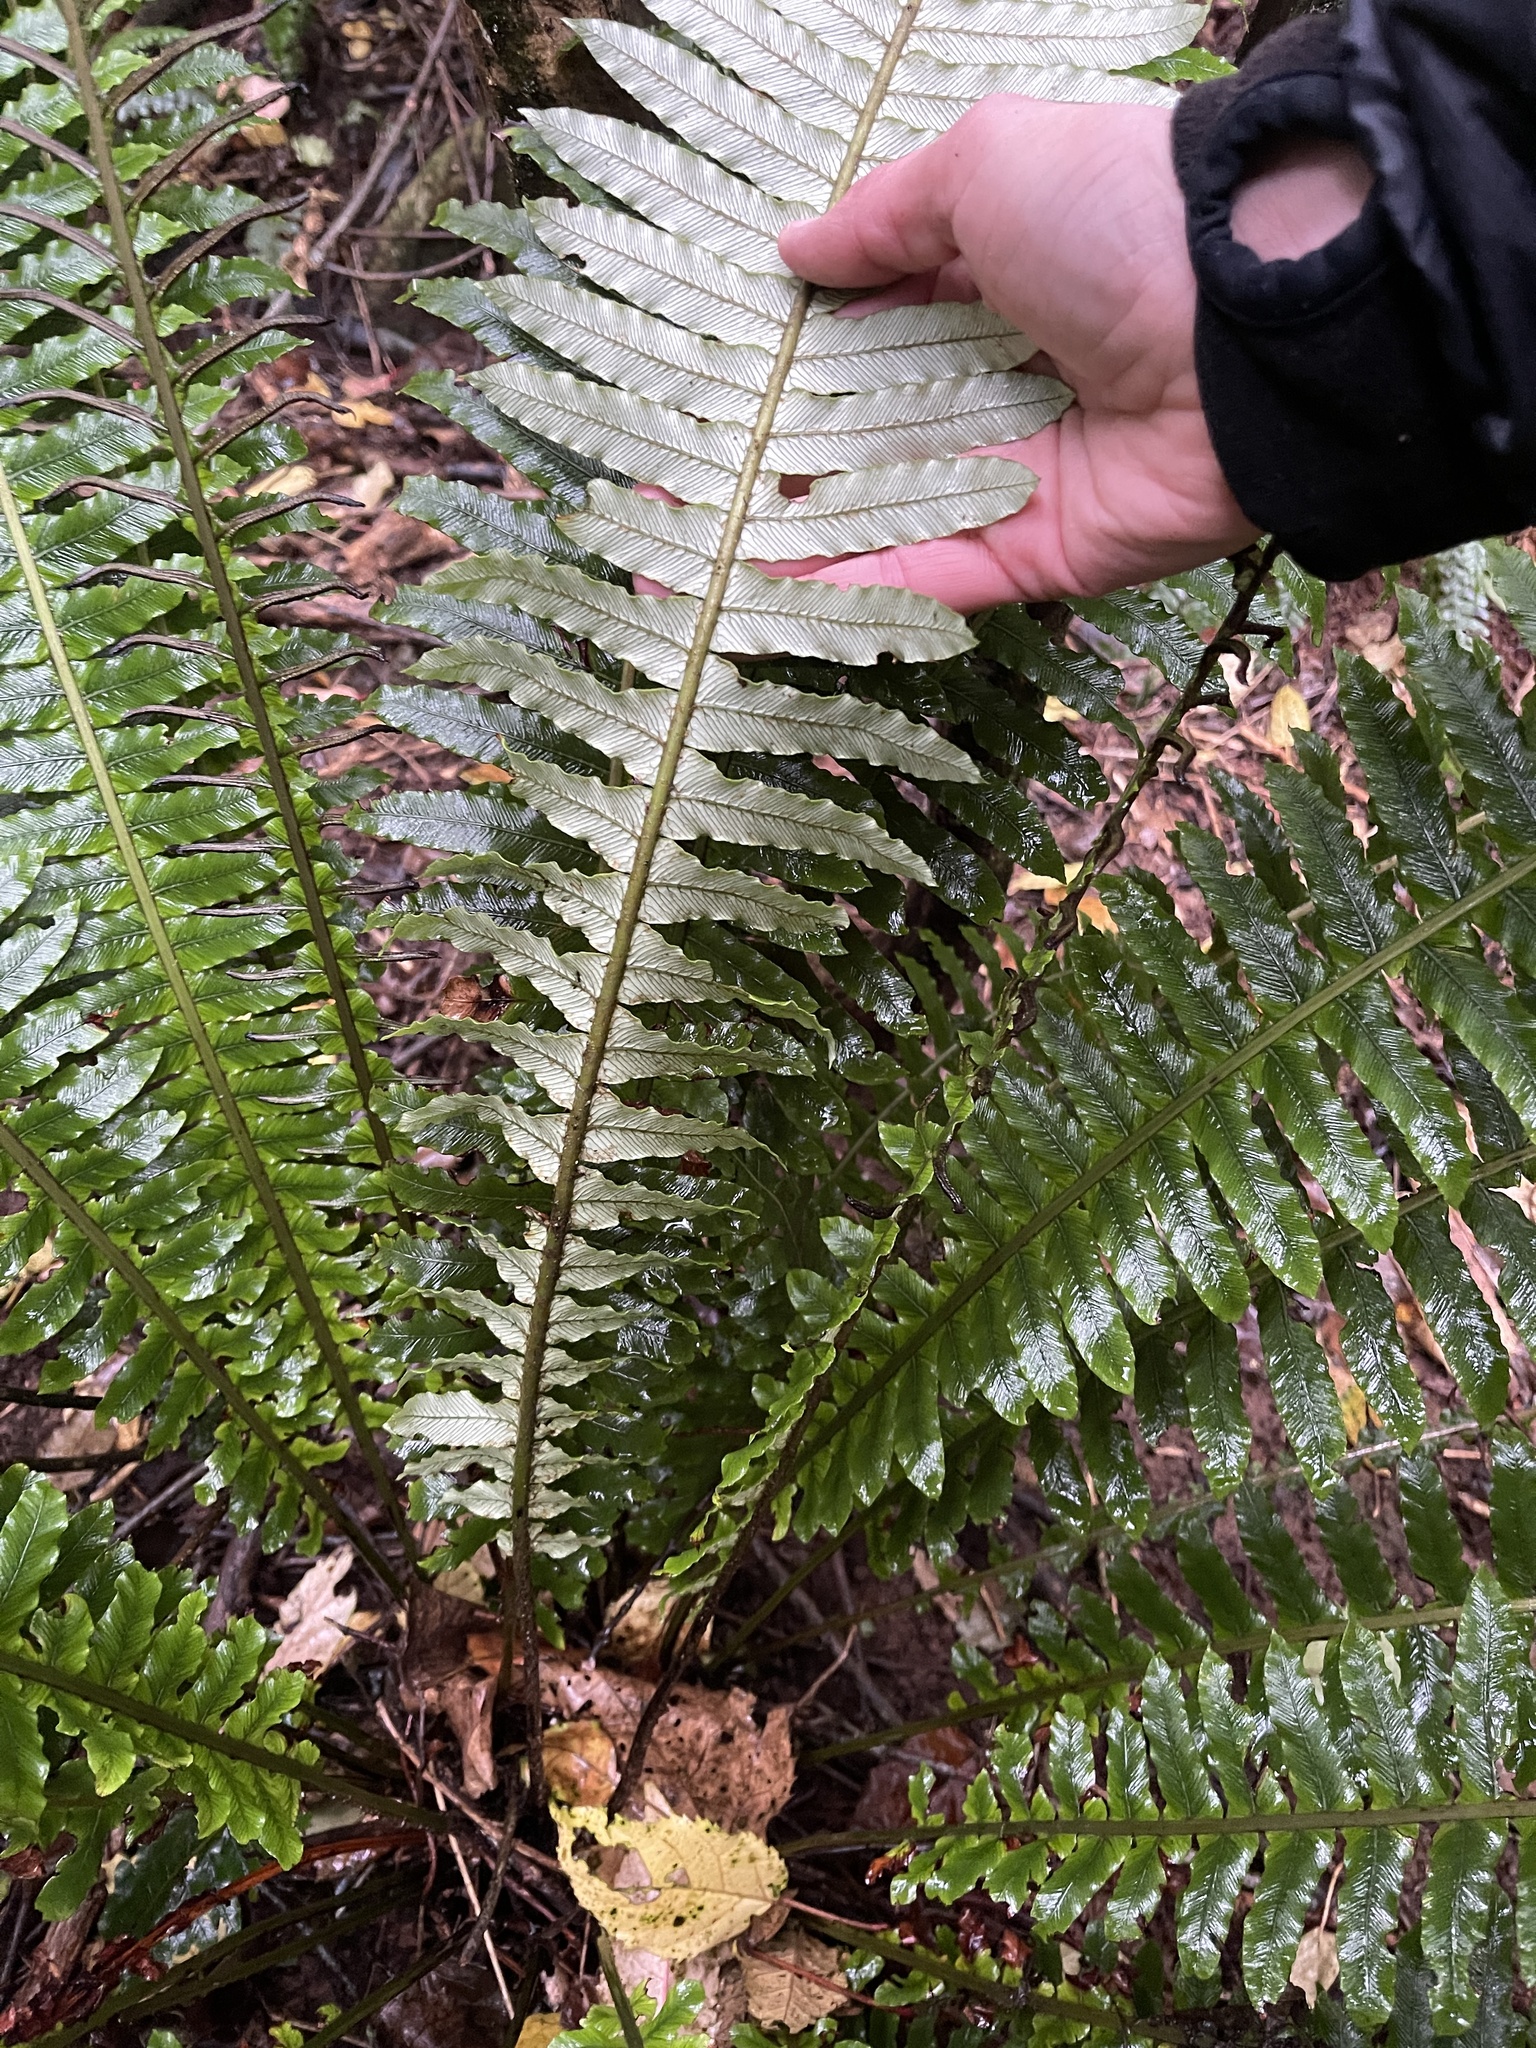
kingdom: Plantae
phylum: Tracheophyta
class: Polypodiopsida
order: Polypodiales
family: Blechnaceae
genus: Lomaria
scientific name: Lomaria discolor
